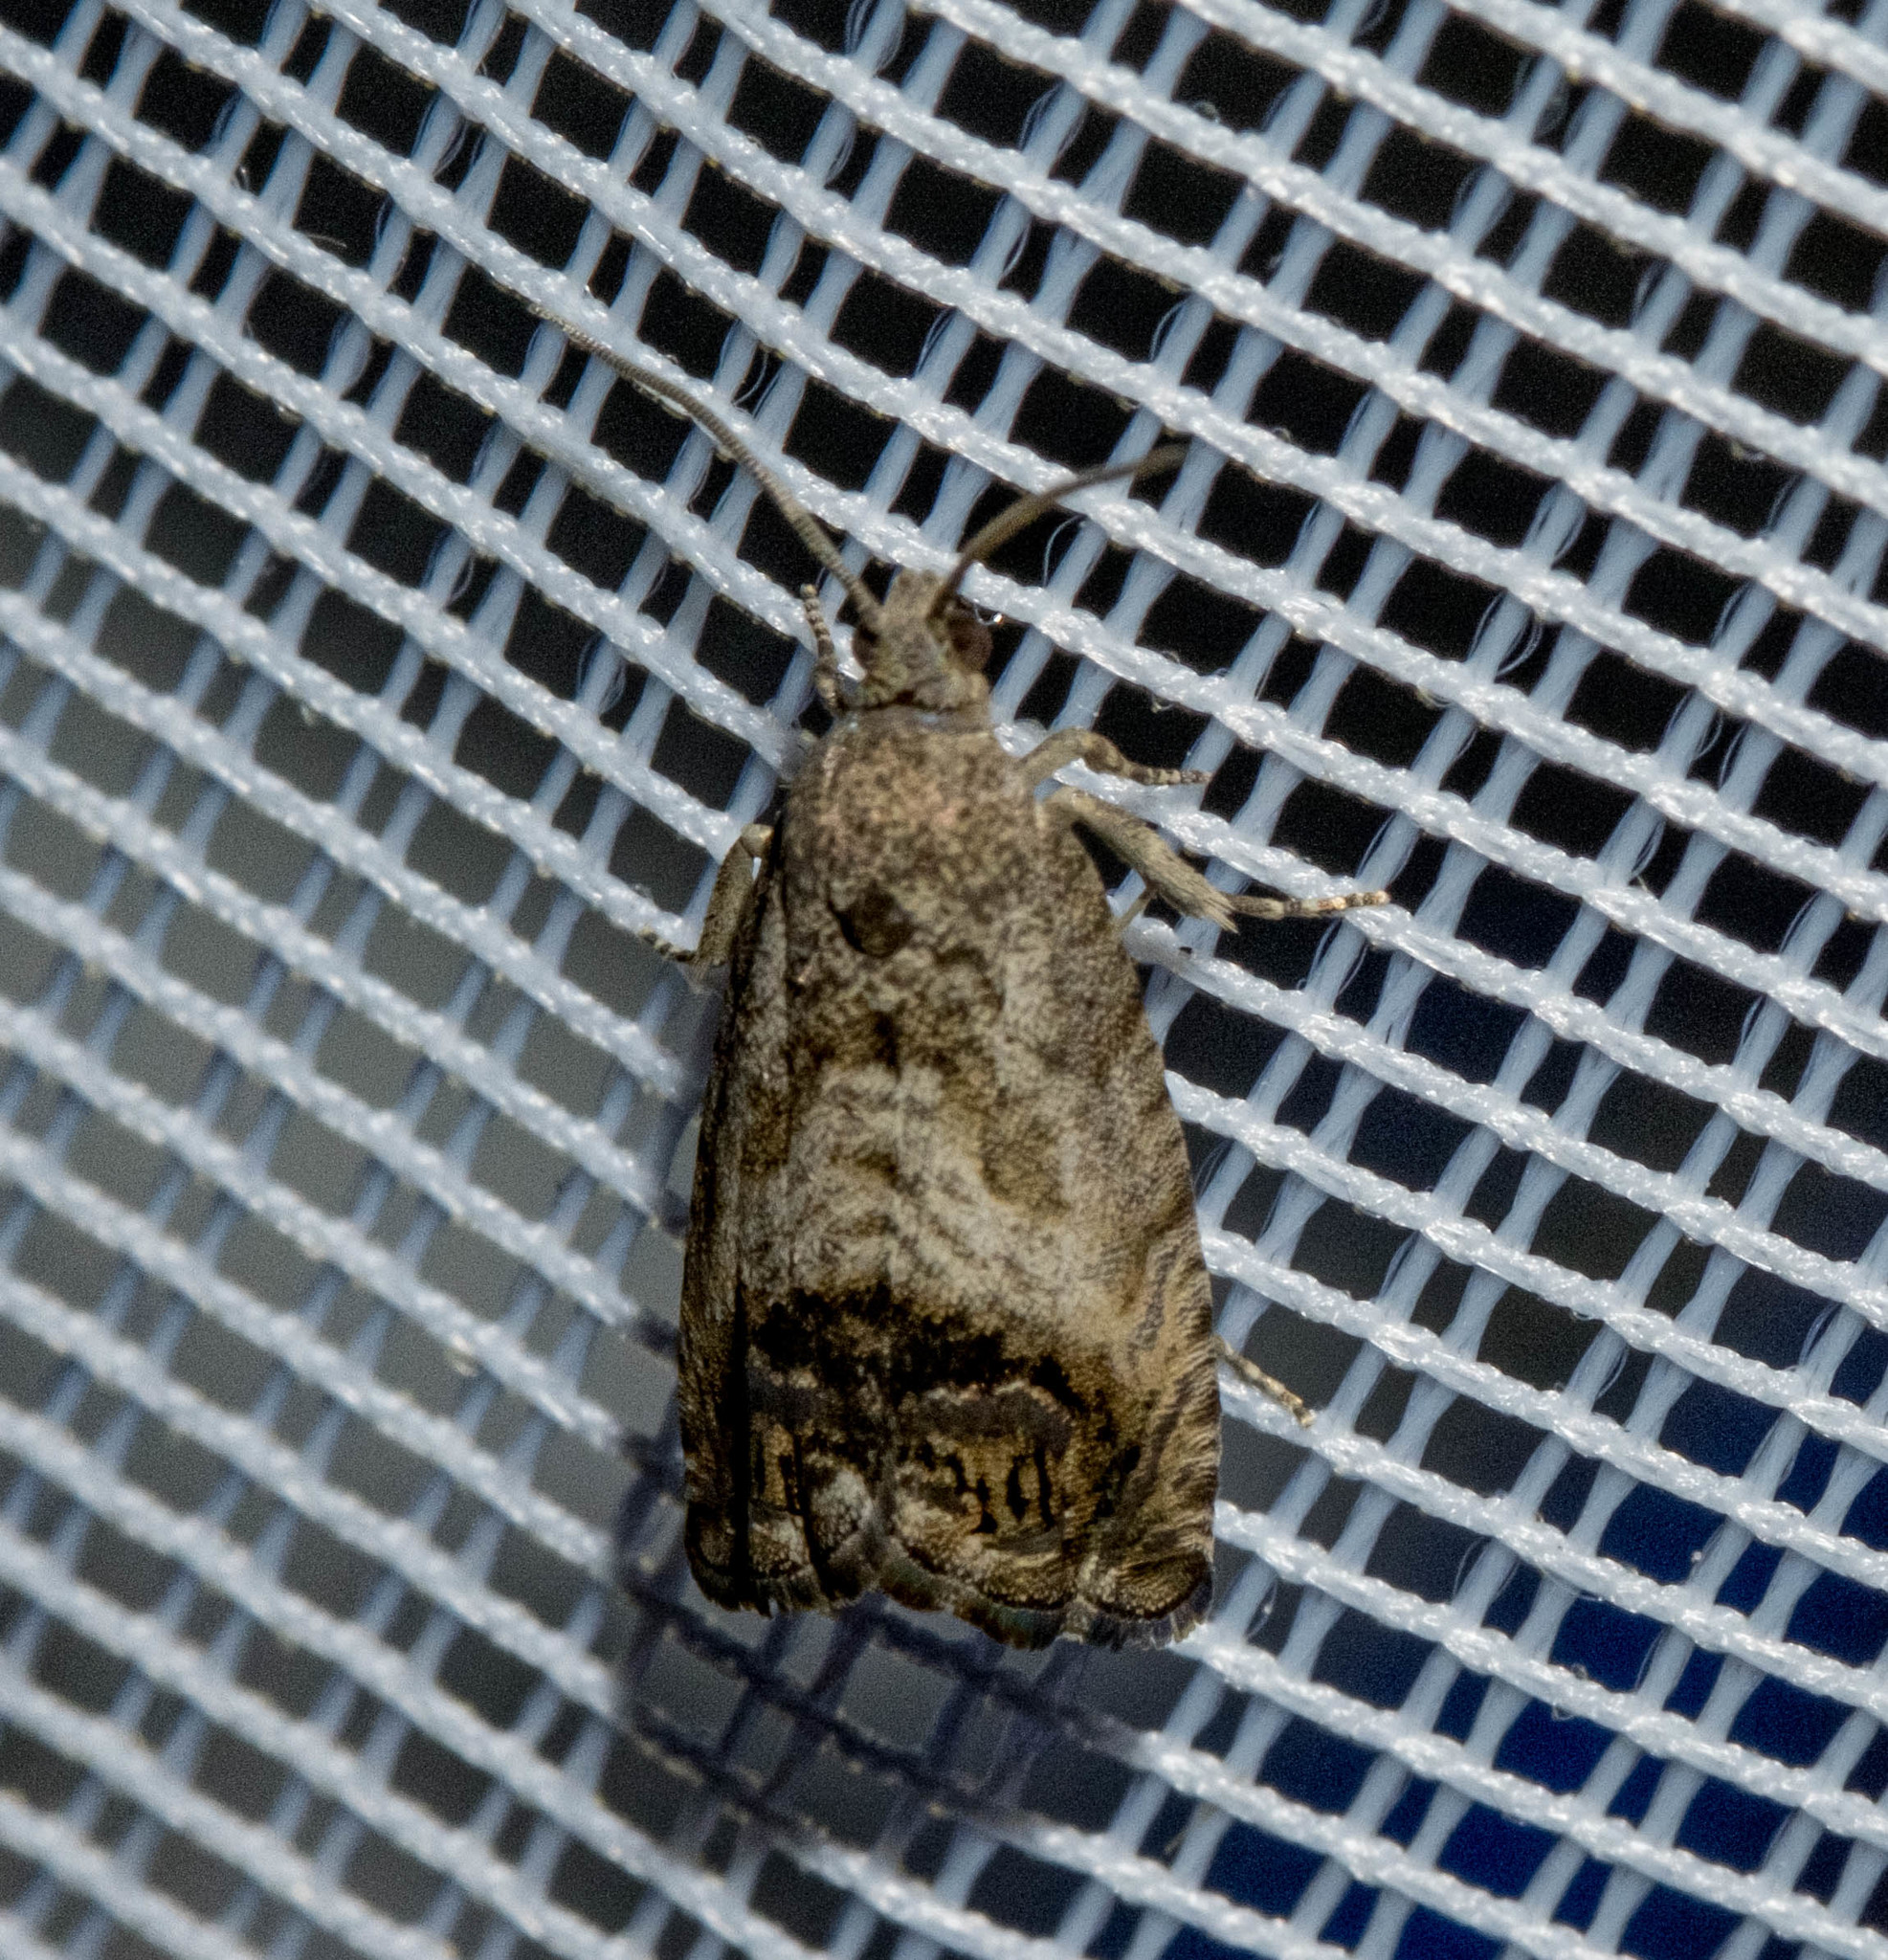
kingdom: Animalia
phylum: Arthropoda
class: Insecta
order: Lepidoptera
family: Tortricidae
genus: Cydia
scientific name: Cydia splendana
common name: De: kastanienwickler, eichenwickler es: oruga de la castaña fr: carpocapse des châtaignes it: cidia o tortrice tardiva delle castagne pt: bichado das castanhas gb: acorn moth, chestnut fruit tortrix
